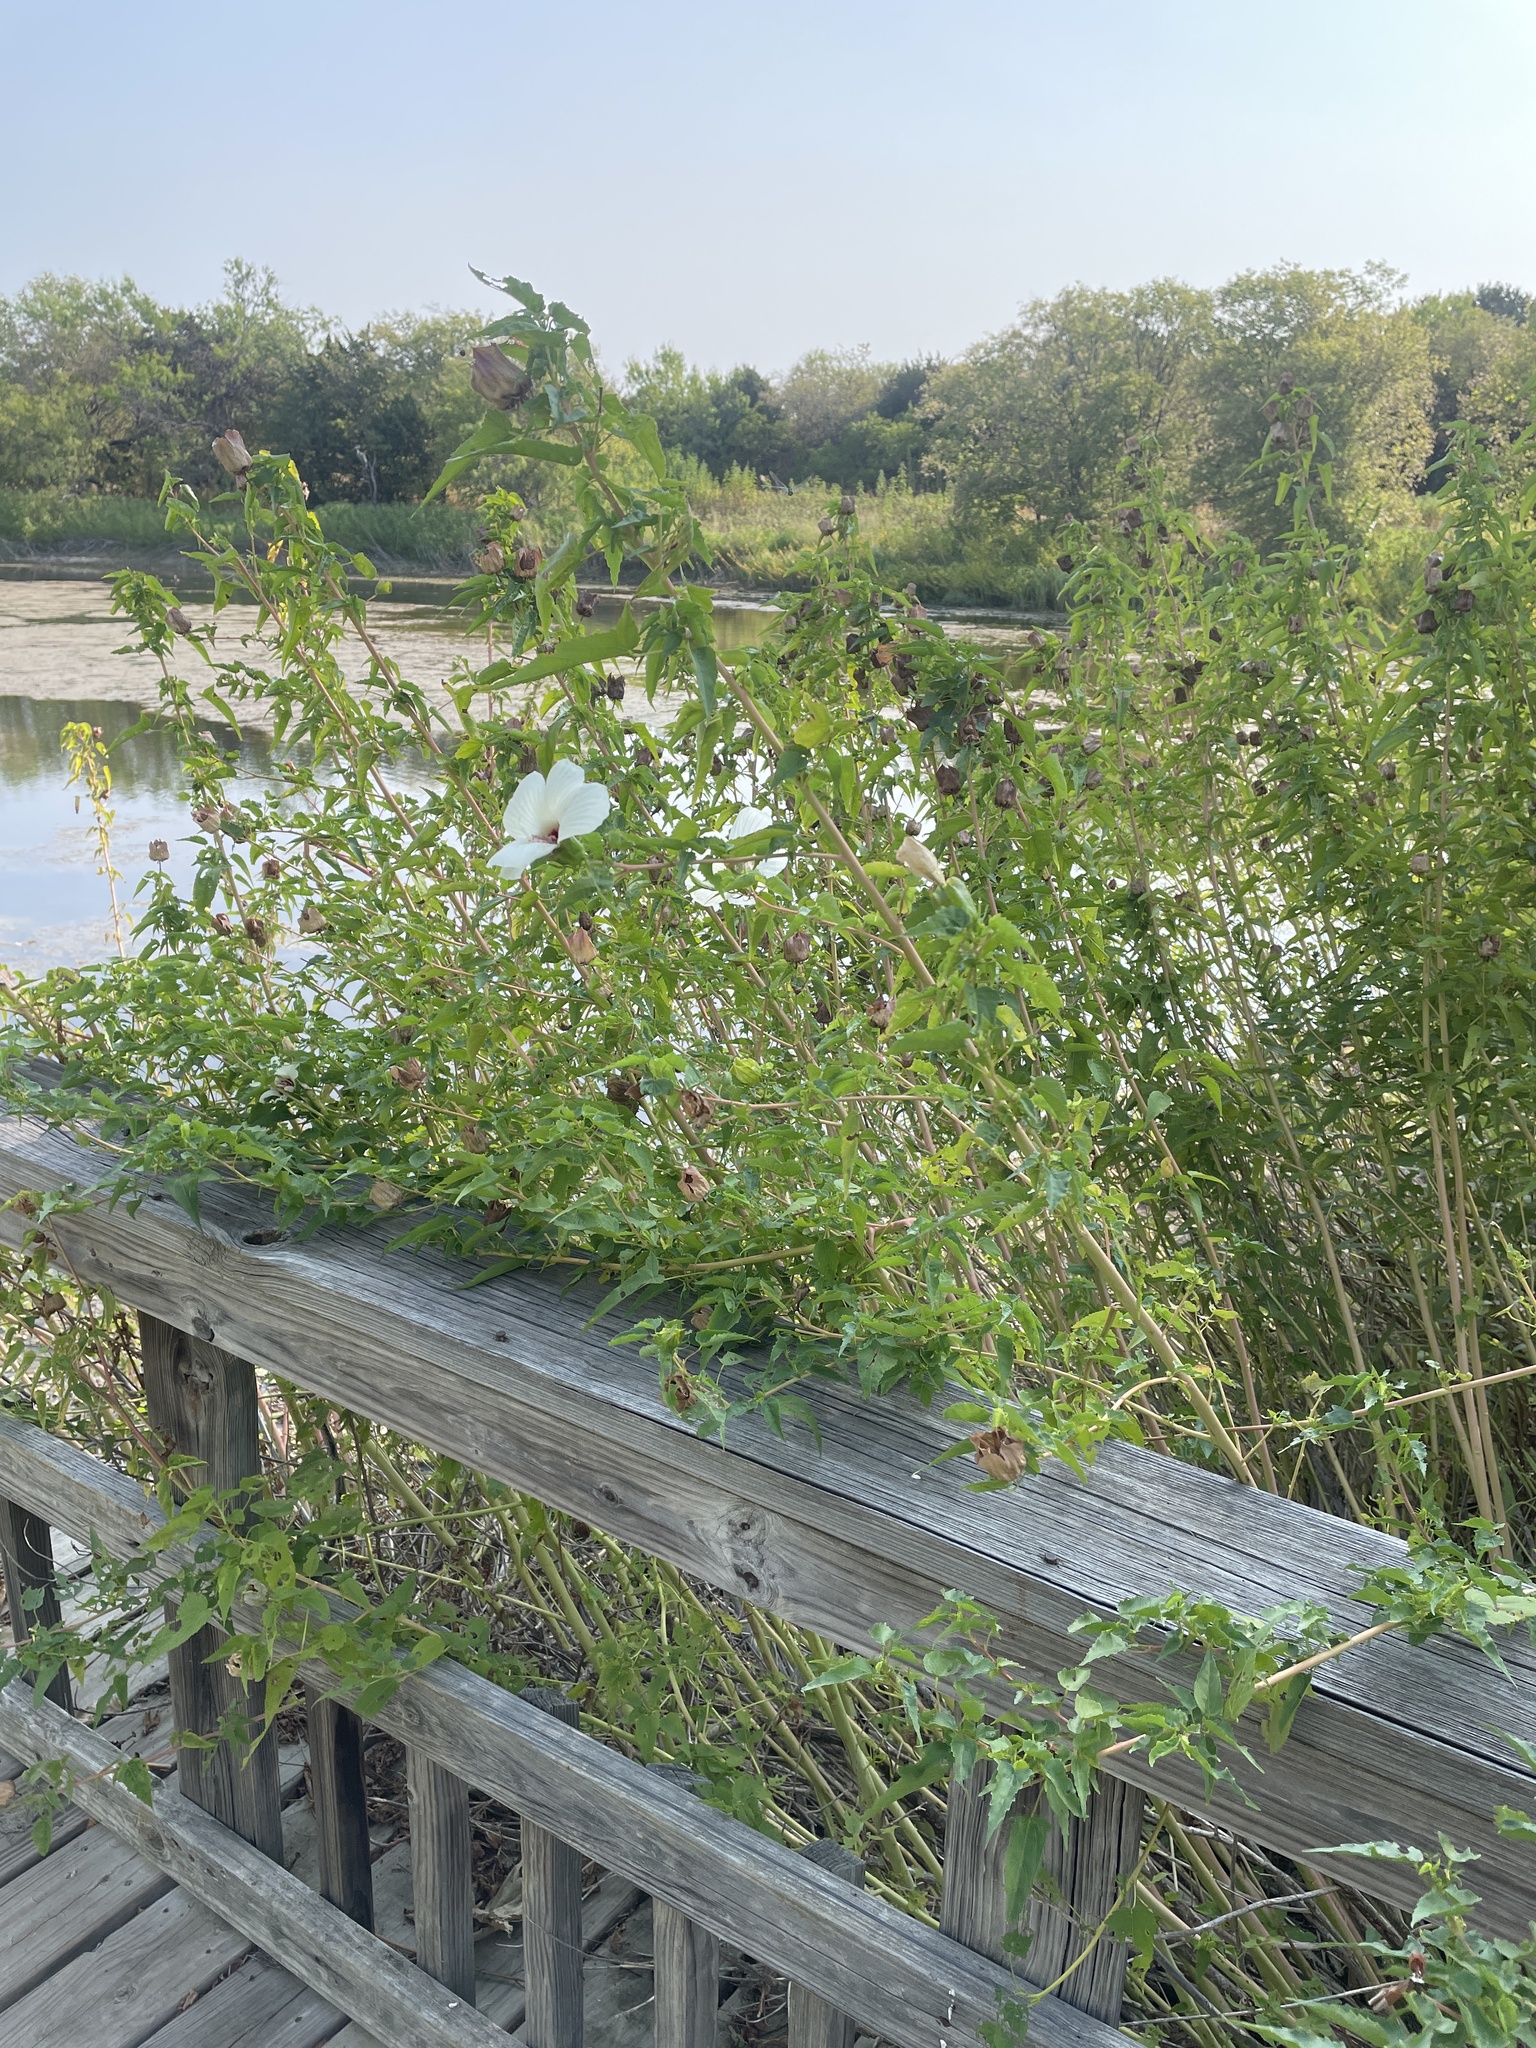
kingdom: Plantae
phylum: Tracheophyta
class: Magnoliopsida
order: Malvales
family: Malvaceae
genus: Hibiscus
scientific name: Hibiscus laevis
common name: Scarlet rose-mallow
